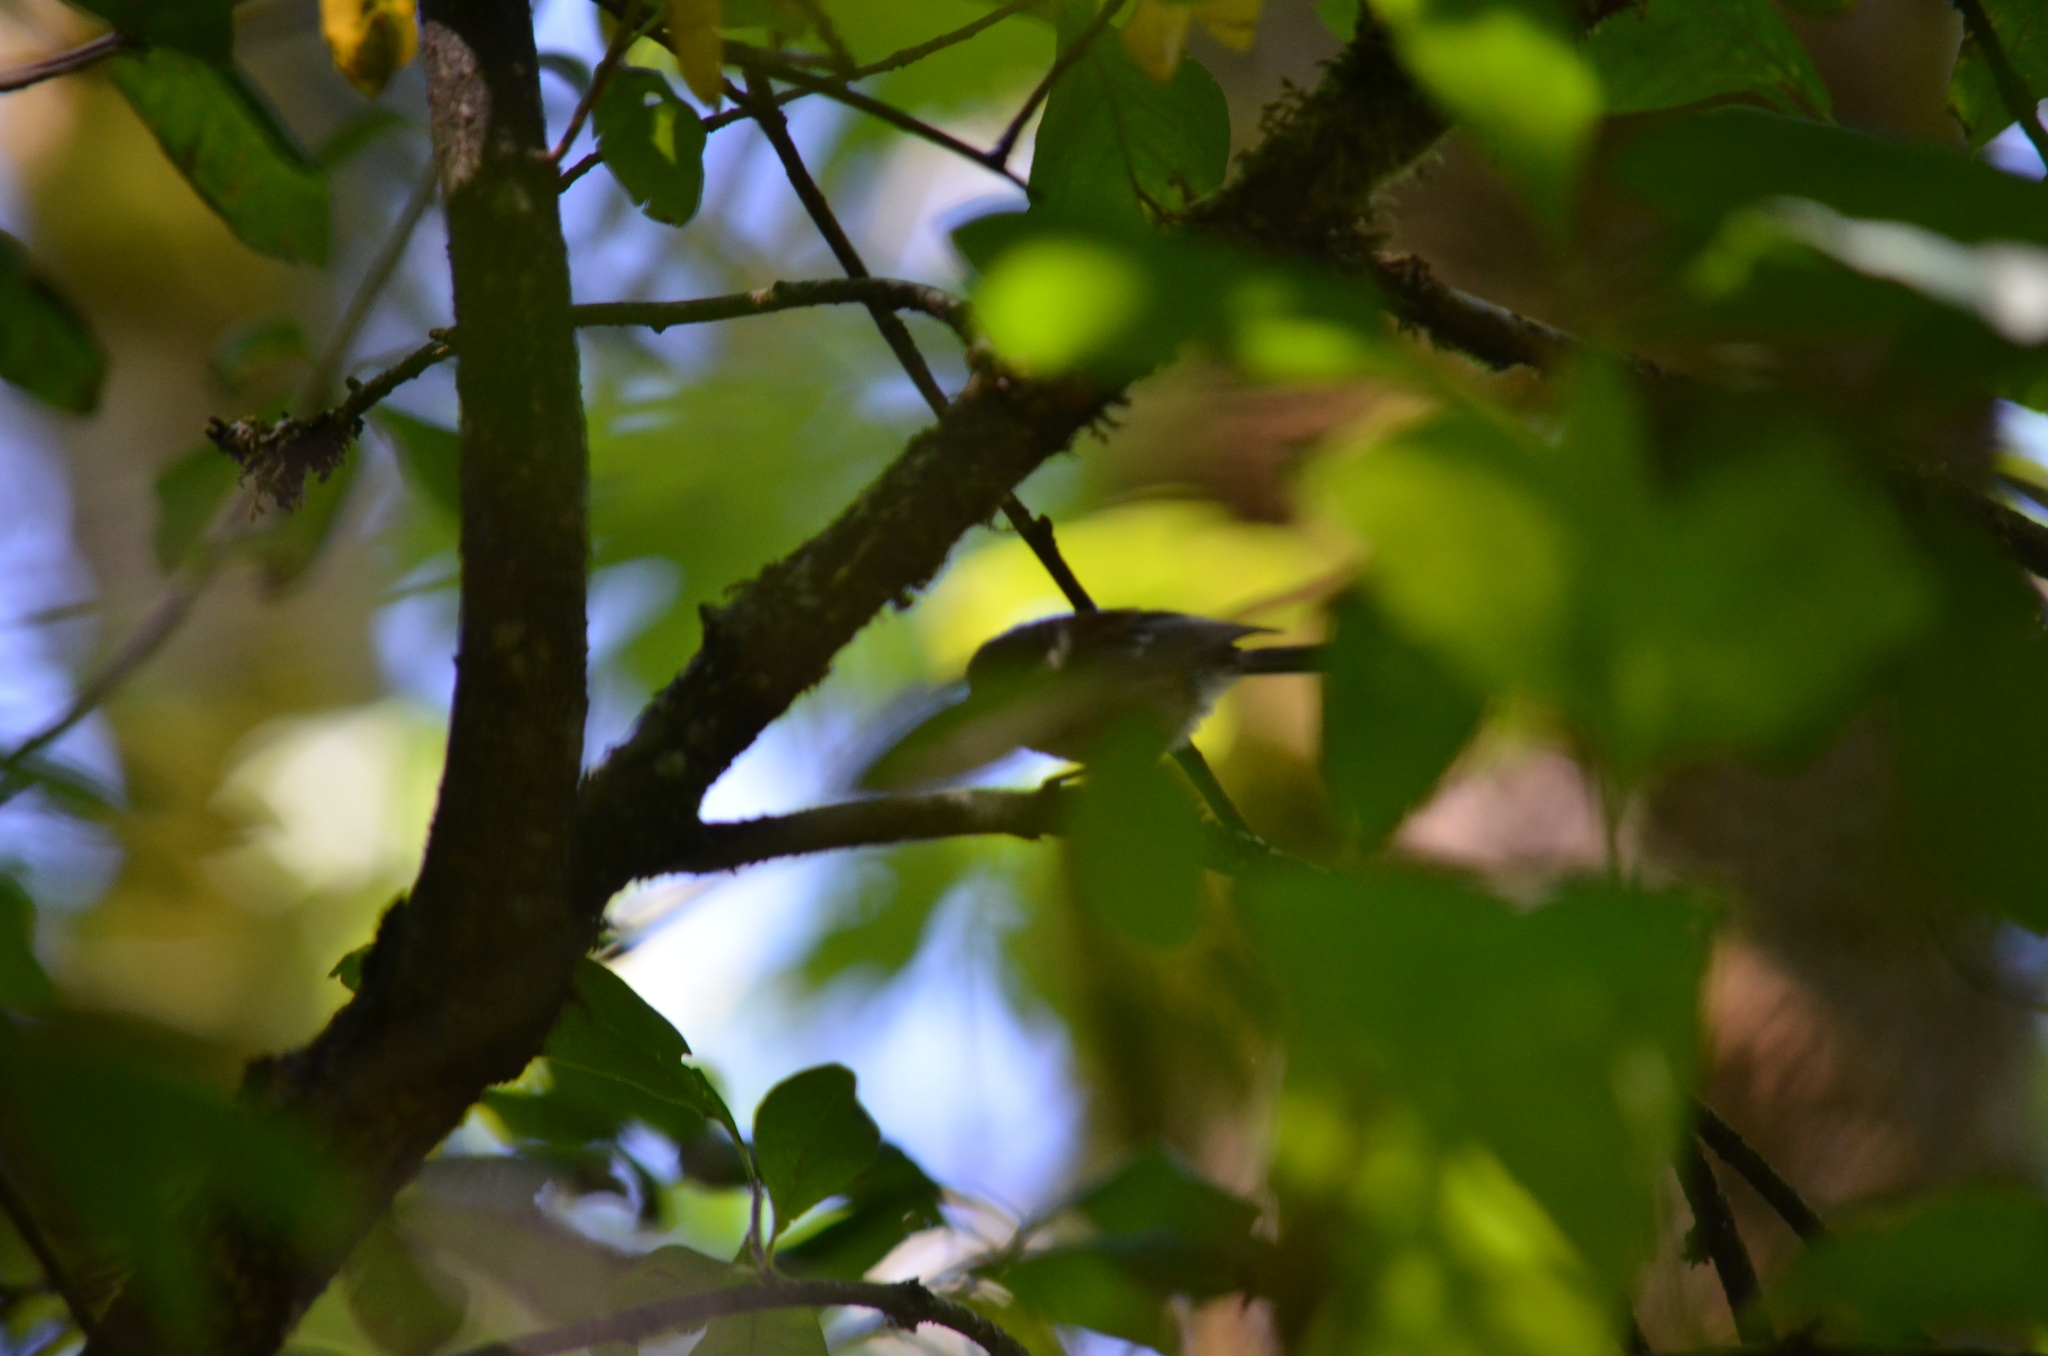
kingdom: Animalia
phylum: Chordata
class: Aves
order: Passeriformes
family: Paridae
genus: Poecile
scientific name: Poecile rufescens
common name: Chestnut-backed chickadee
